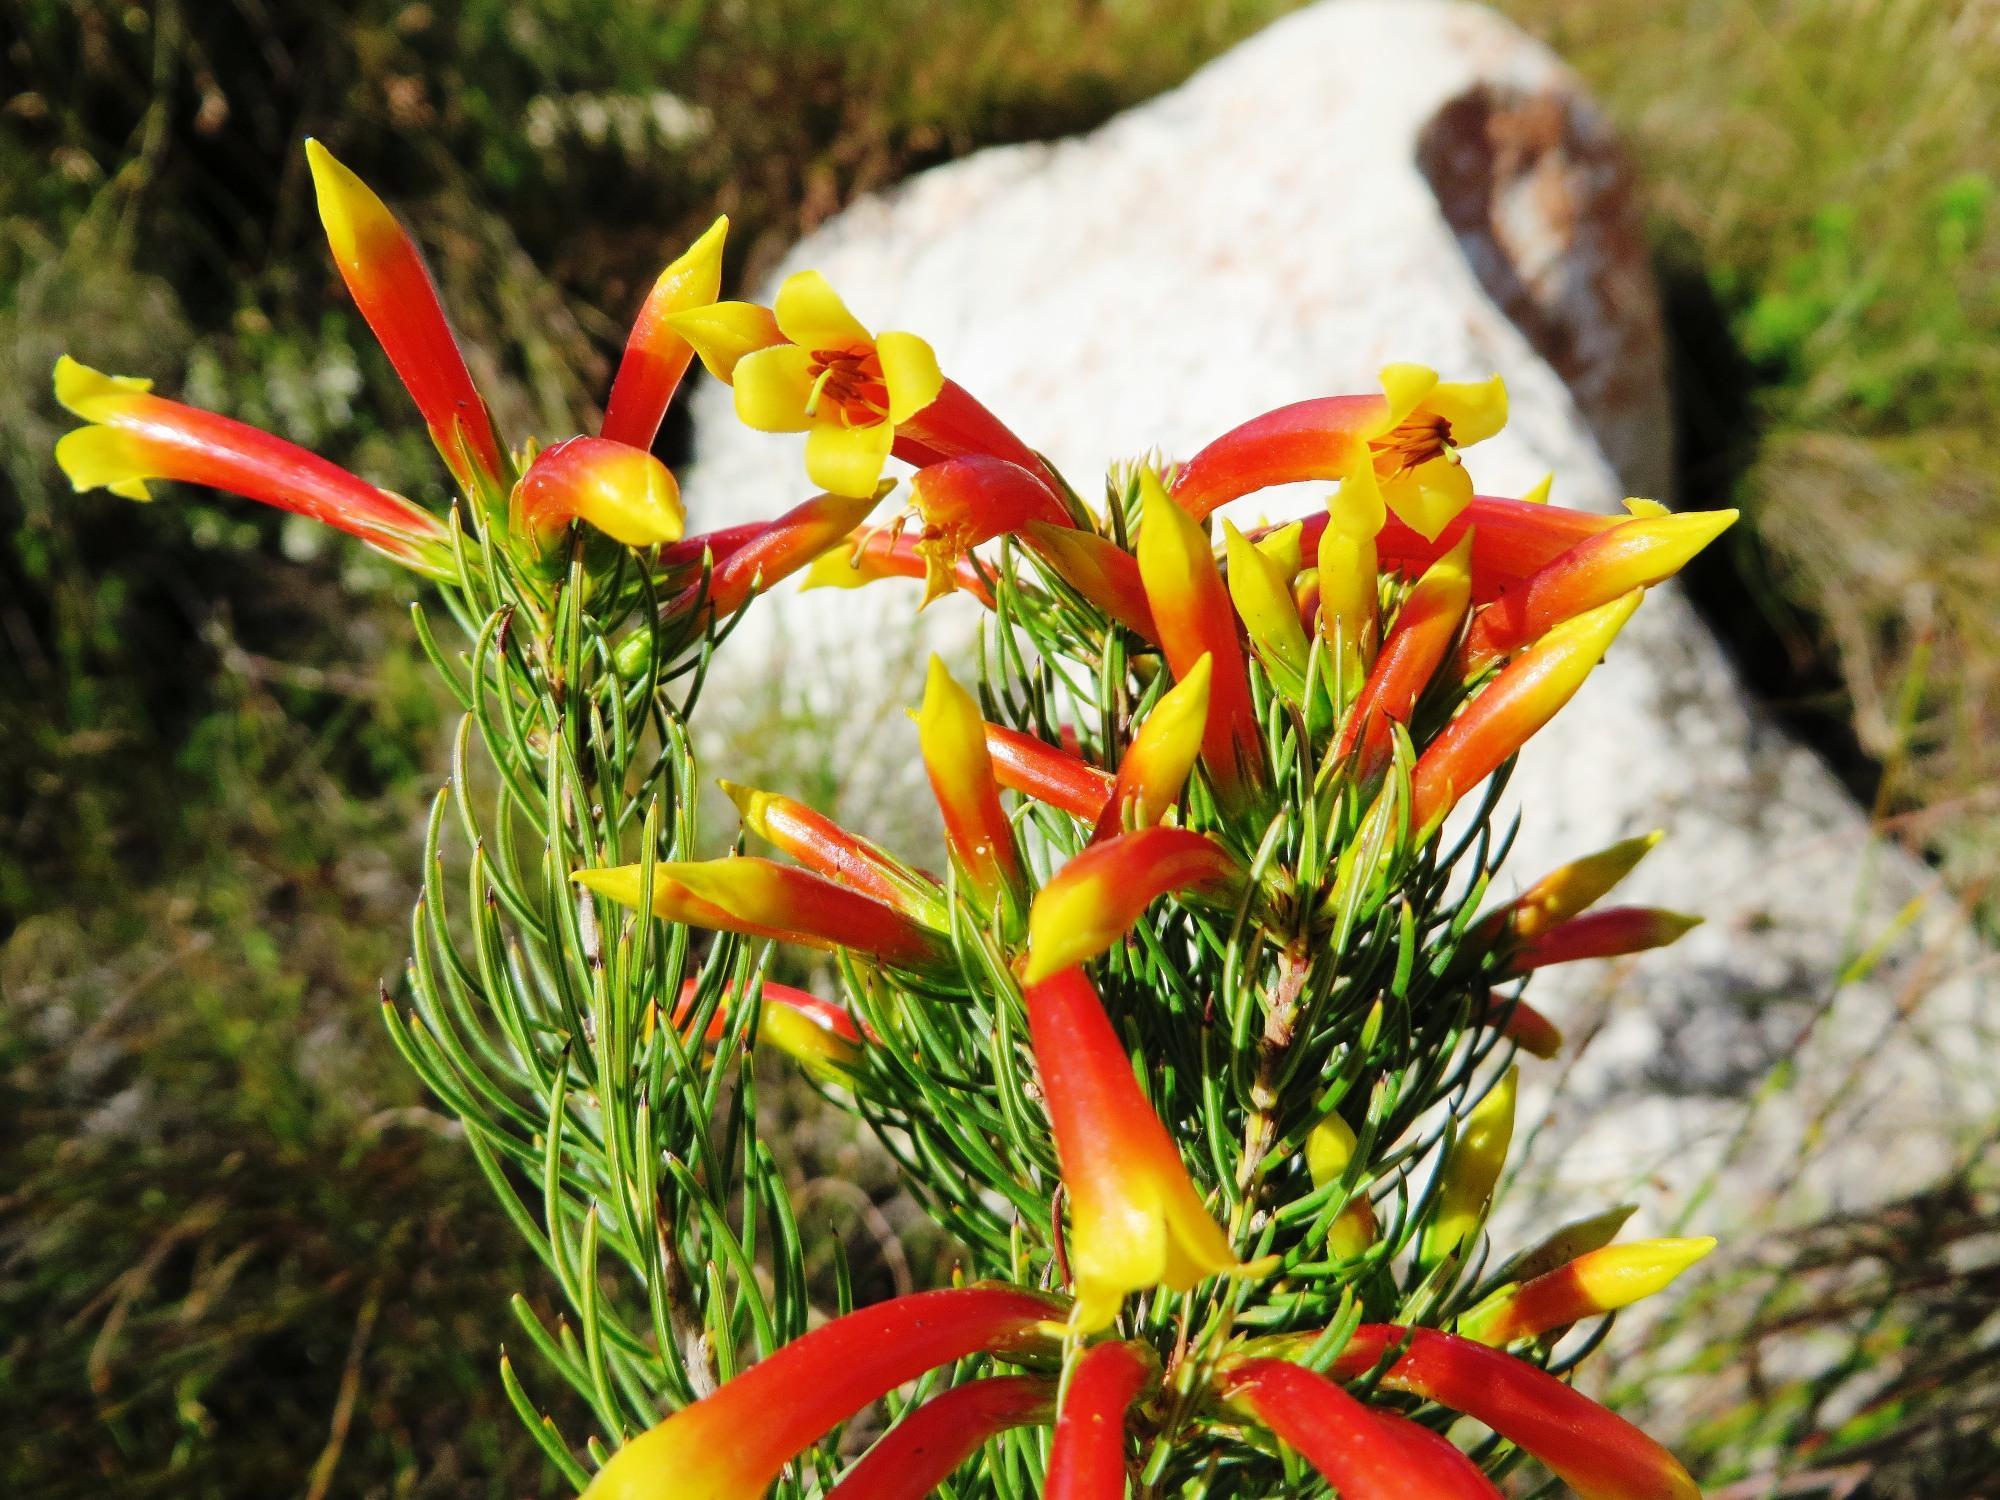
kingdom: Plantae
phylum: Tracheophyta
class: Magnoliopsida
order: Ericales
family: Ericaceae
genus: Erica
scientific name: Erica grandiflora
